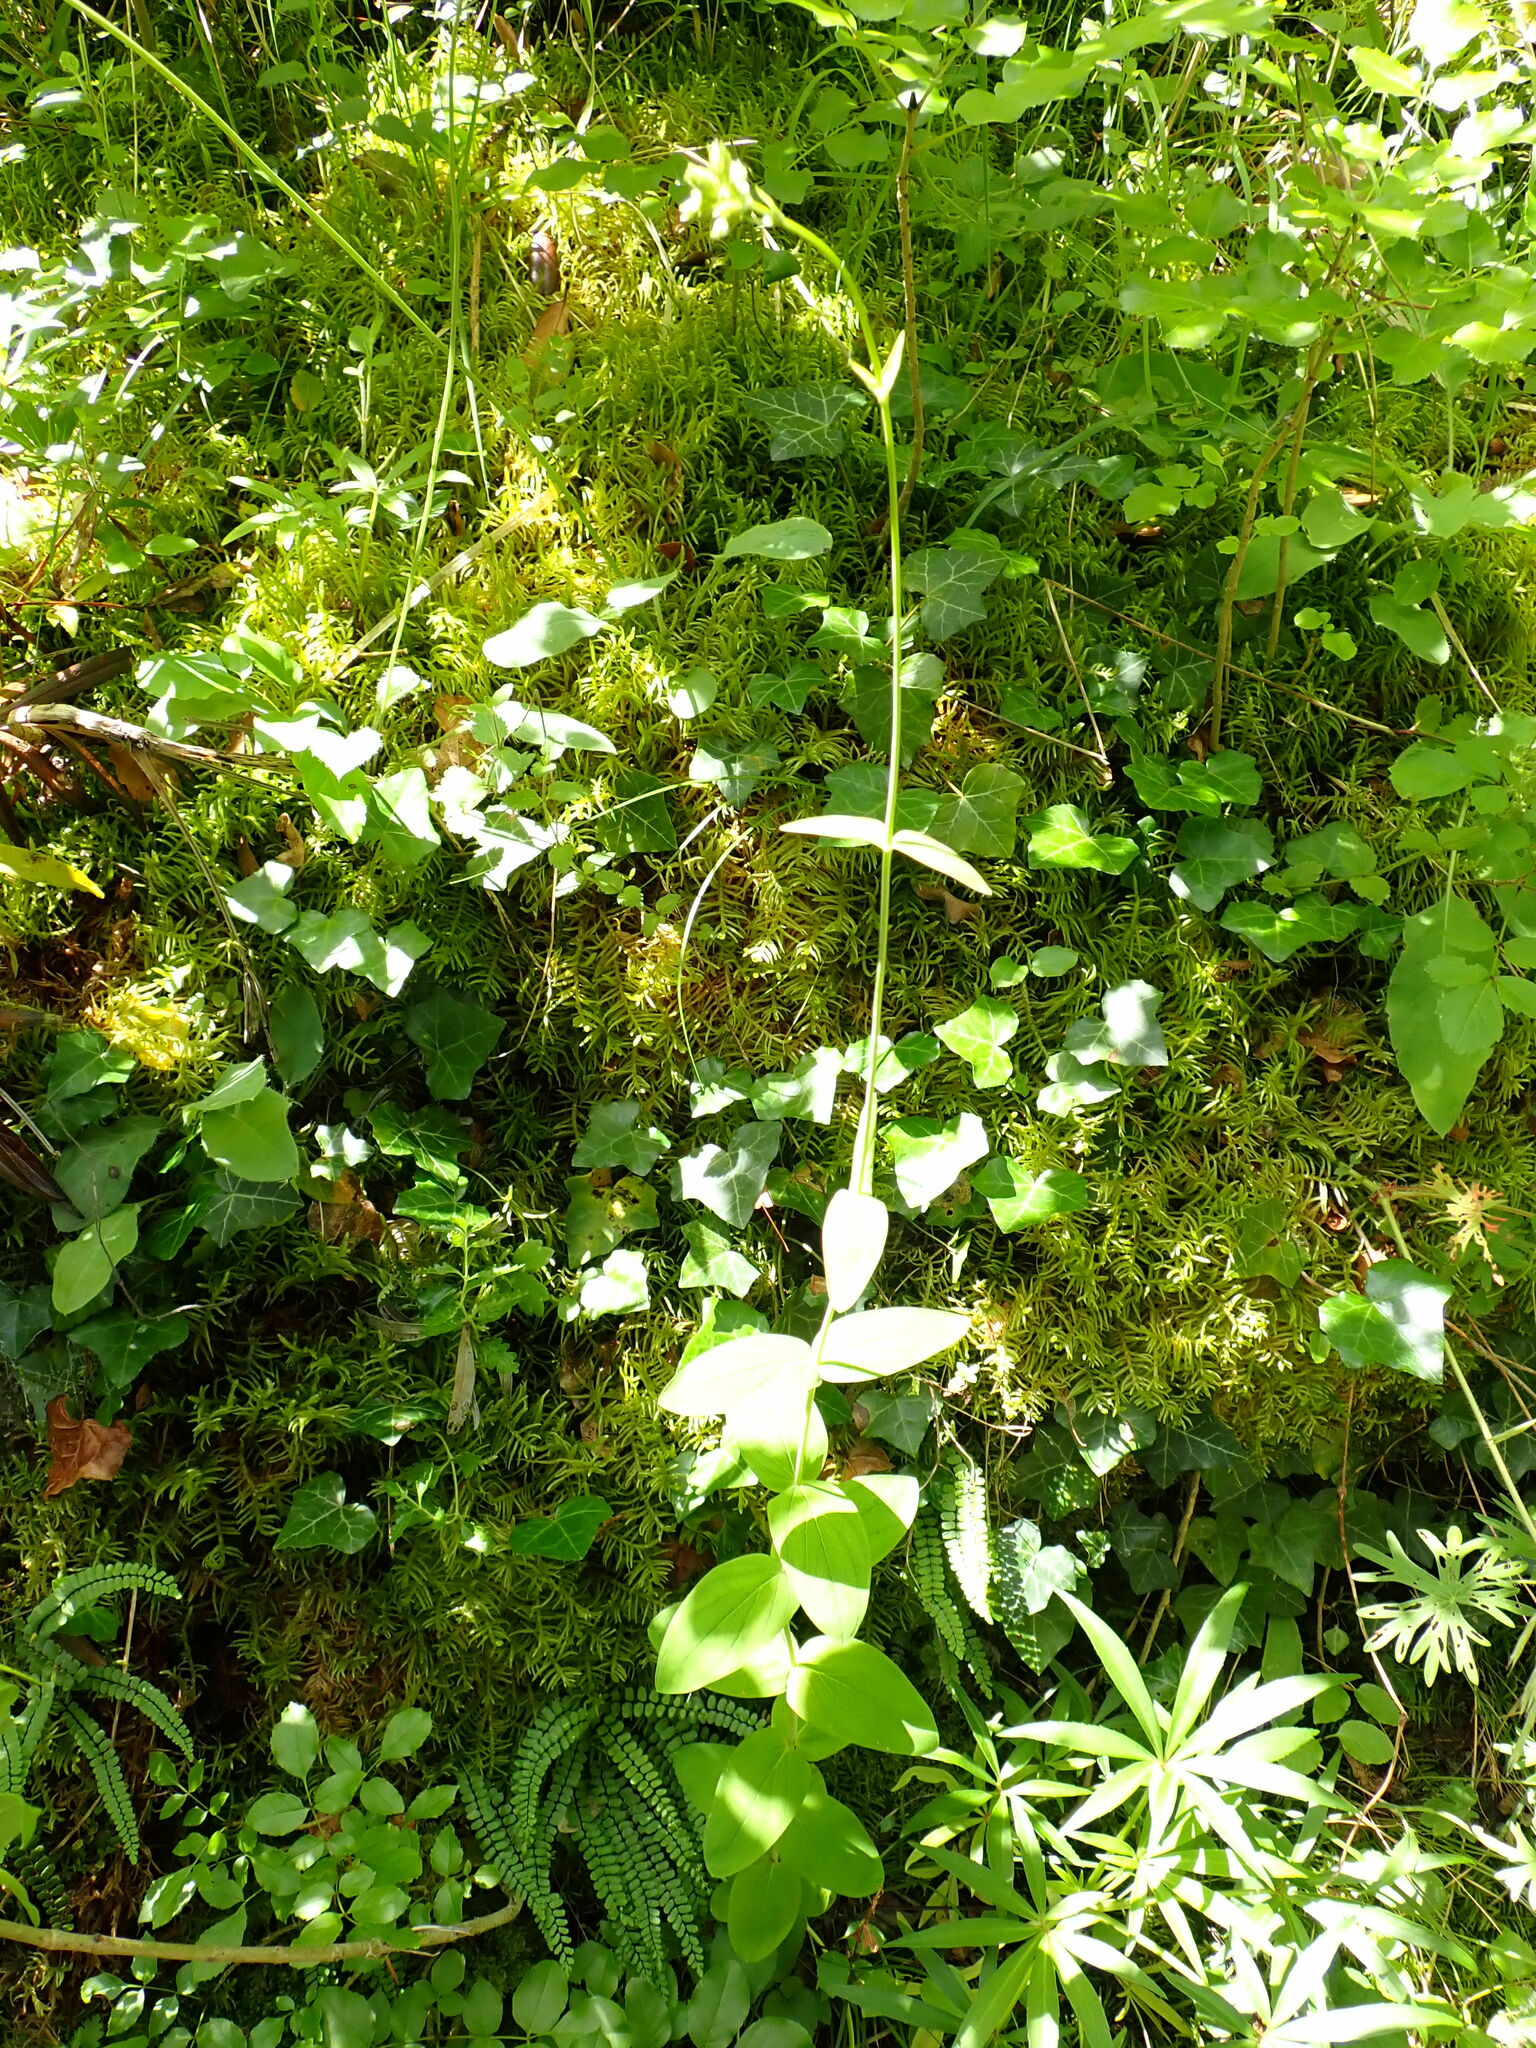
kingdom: Plantae
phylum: Tracheophyta
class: Magnoliopsida
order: Malpighiales
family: Hypericaceae
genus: Hypericum
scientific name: Hypericum montanum
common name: Pale st. john's-wort
